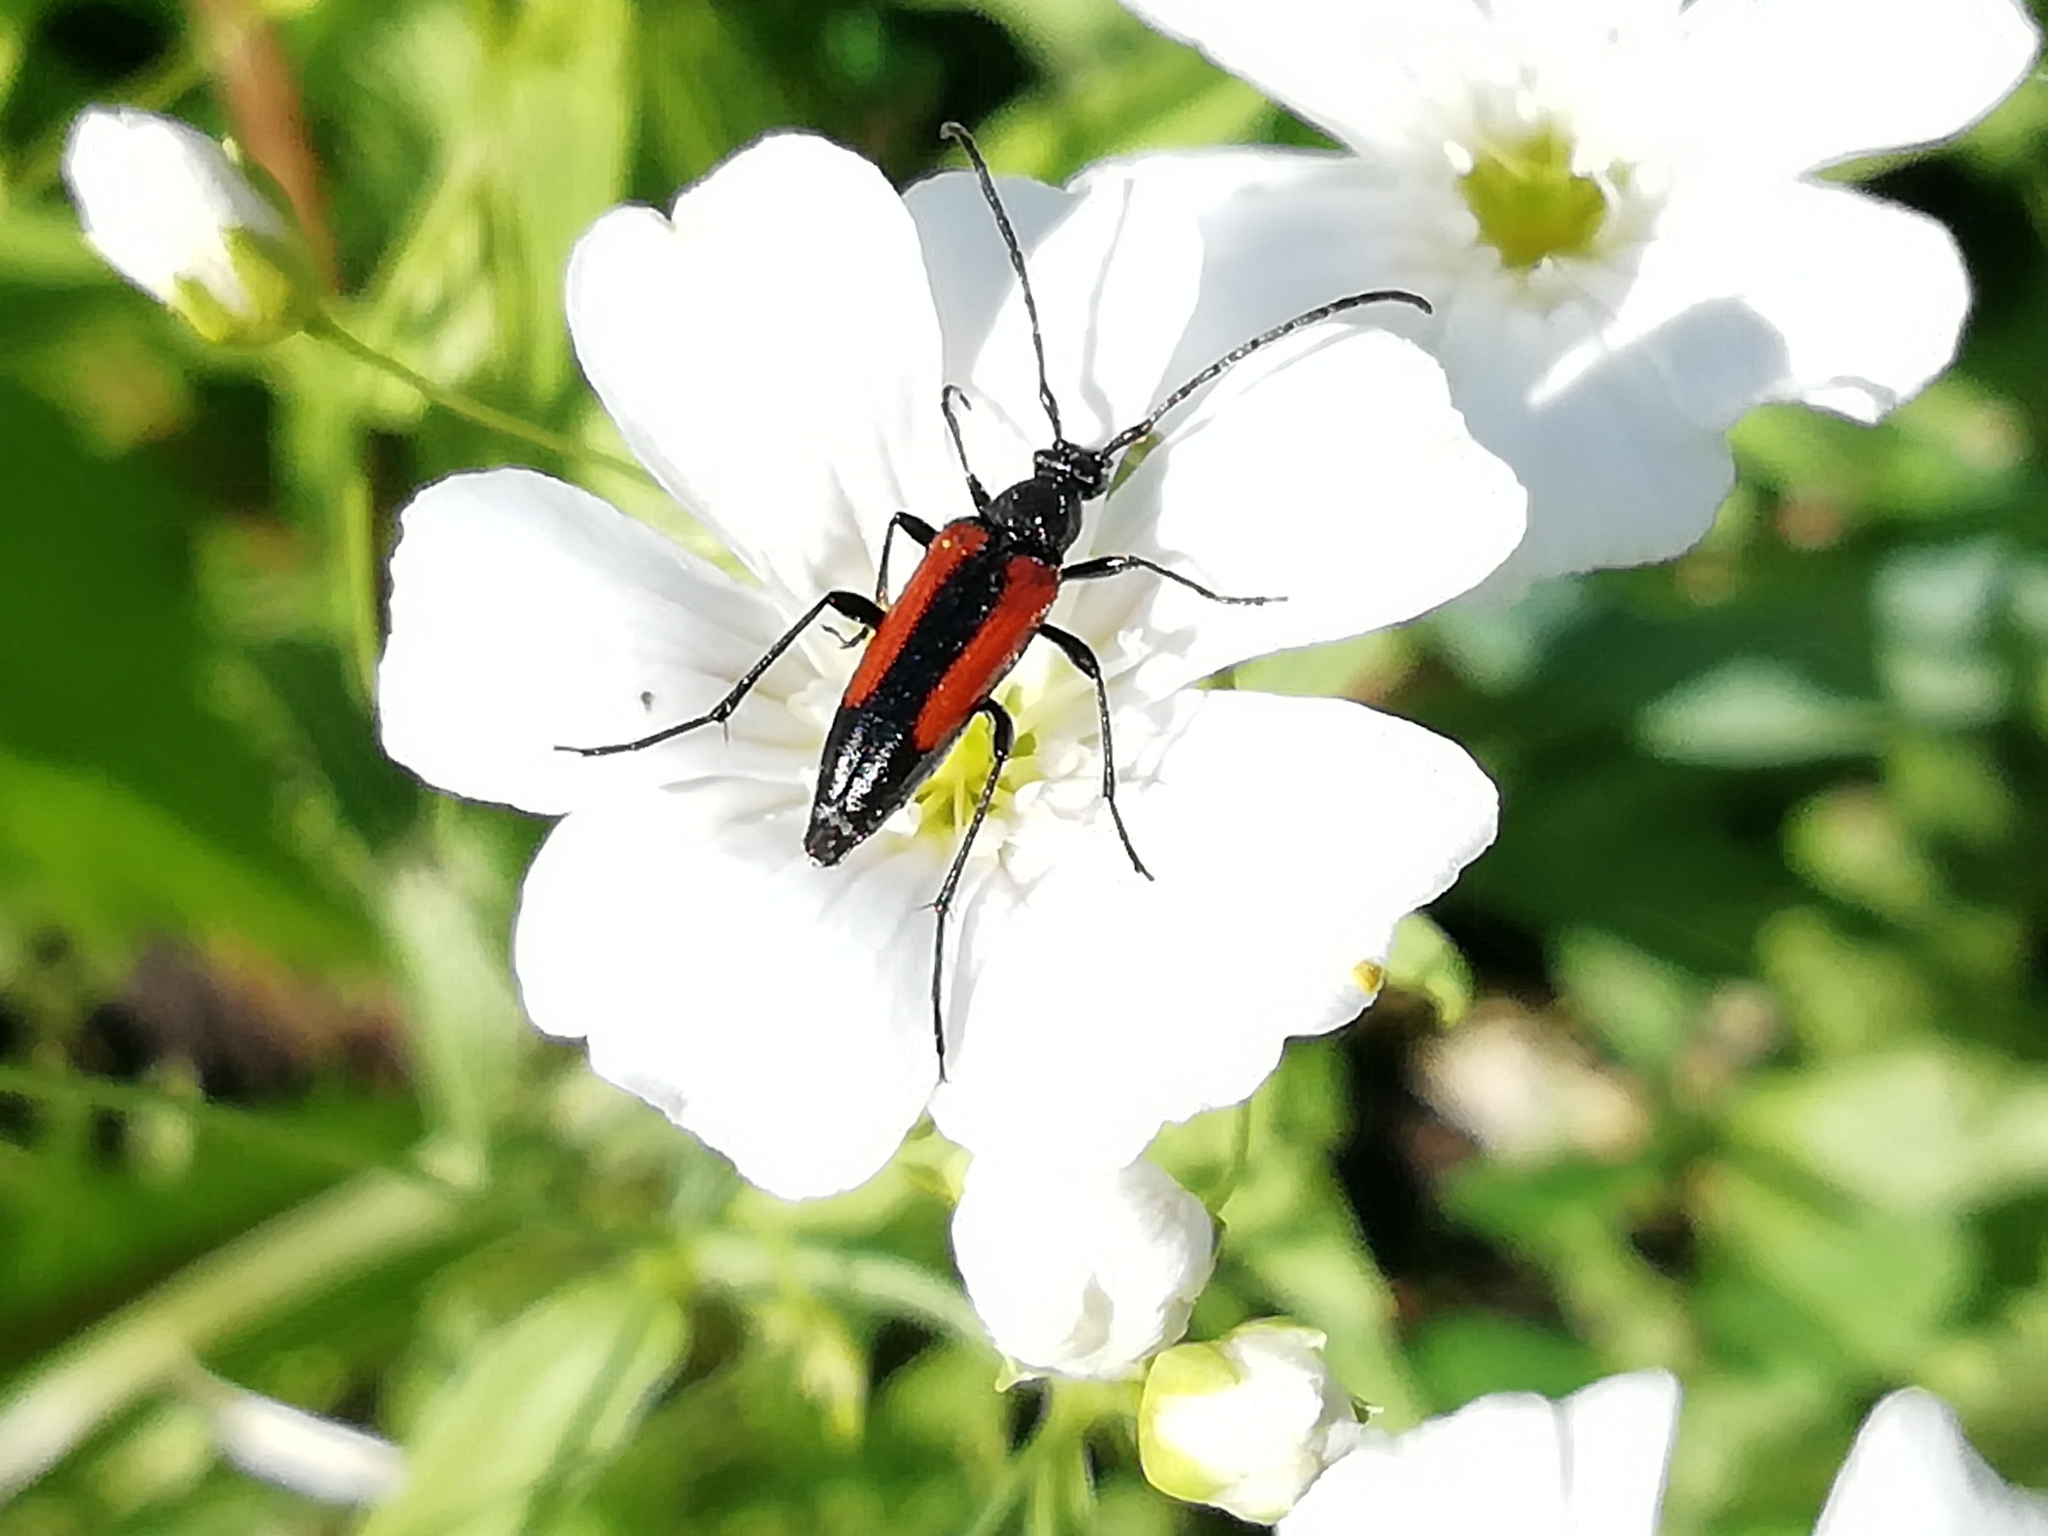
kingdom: Animalia
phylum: Arthropoda
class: Insecta
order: Coleoptera
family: Cerambycidae
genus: Stenurella
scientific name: Stenurella melanura
